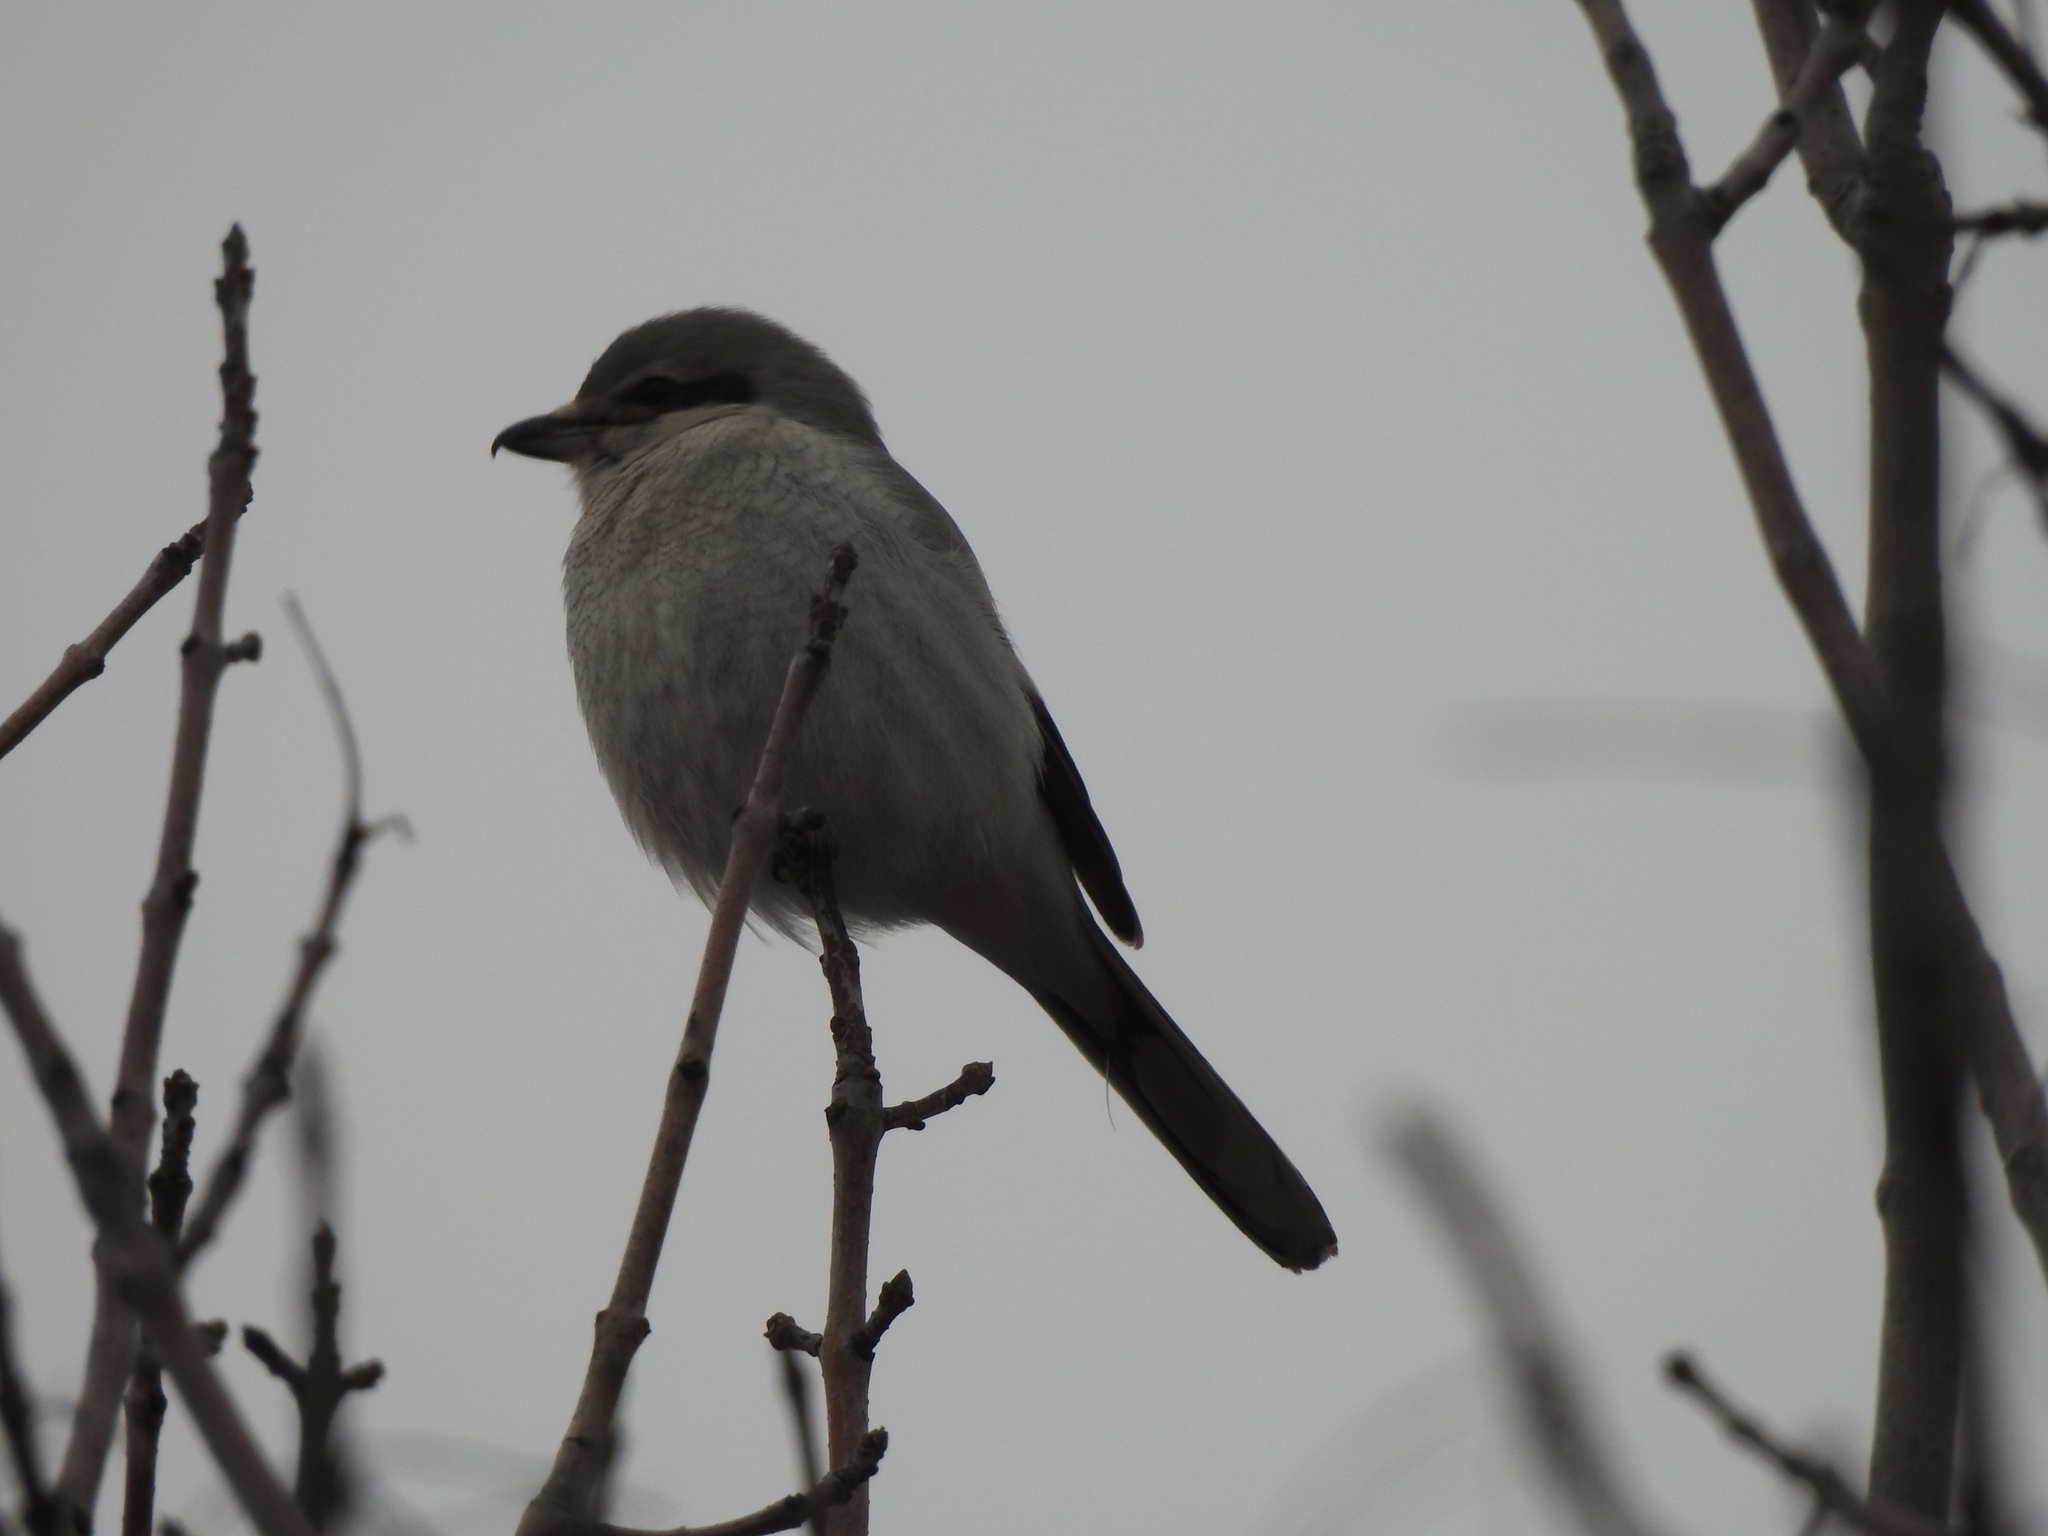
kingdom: Animalia
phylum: Chordata
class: Aves
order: Passeriformes
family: Laniidae
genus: Lanius
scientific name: Lanius borealis
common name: Northern shrike
